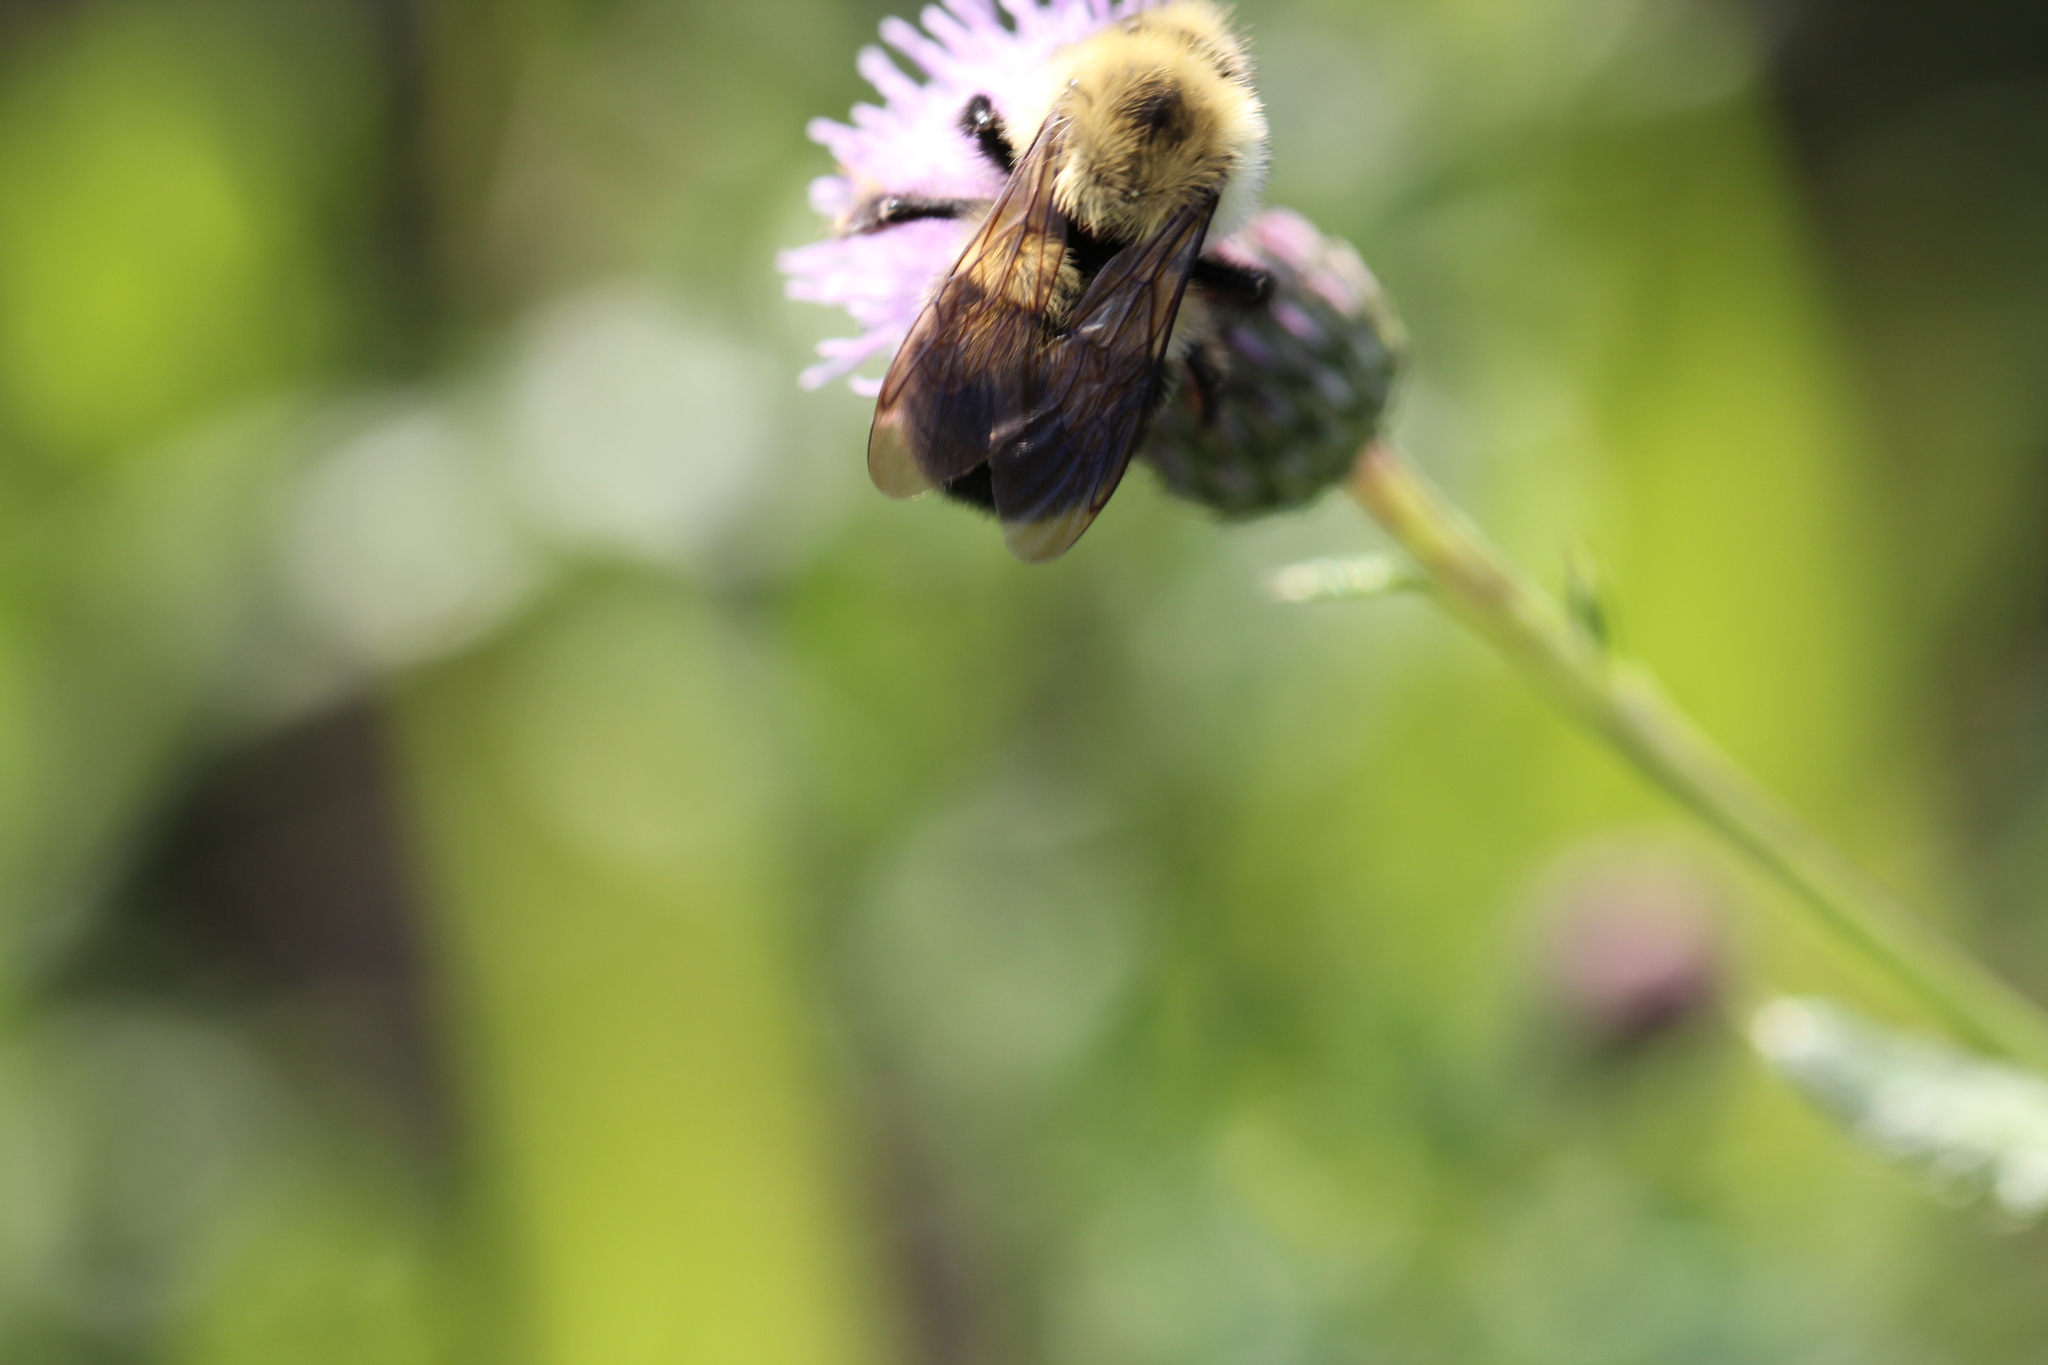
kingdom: Animalia
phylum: Arthropoda
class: Insecta
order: Hymenoptera
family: Apidae
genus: Bombus
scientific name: Bombus bimaculatus
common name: Two-spotted bumble bee
